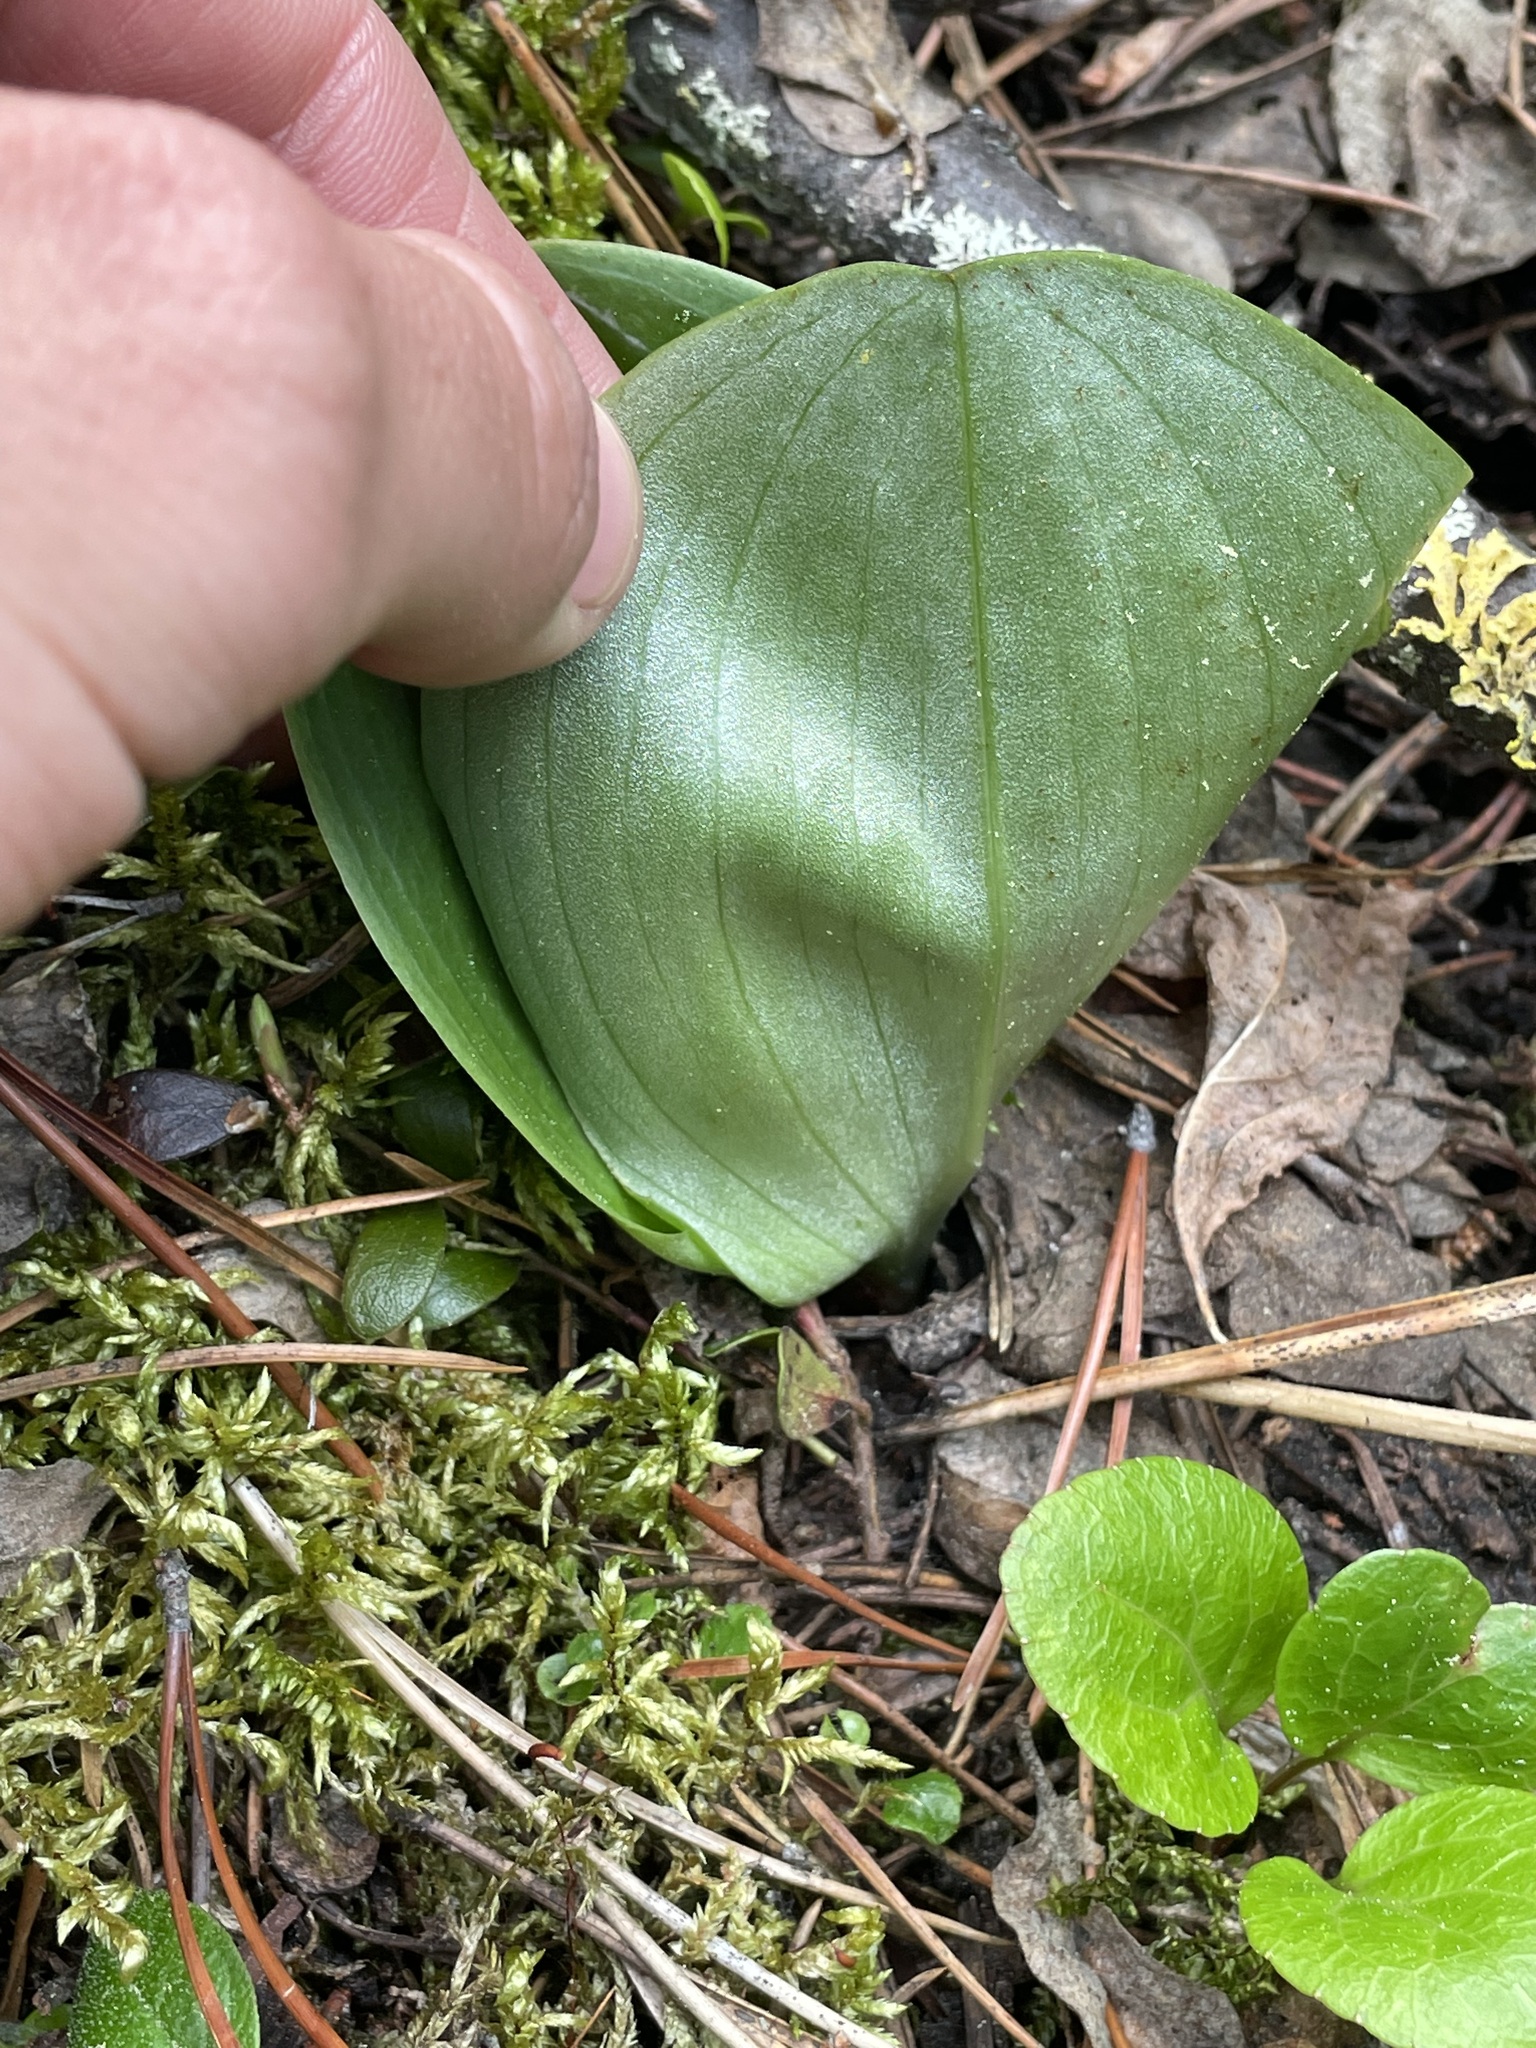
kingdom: Plantae
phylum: Tracheophyta
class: Liliopsida
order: Asparagales
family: Orchidaceae
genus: Platanthera
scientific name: Platanthera orbiculata
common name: Large round-leaved orchid
